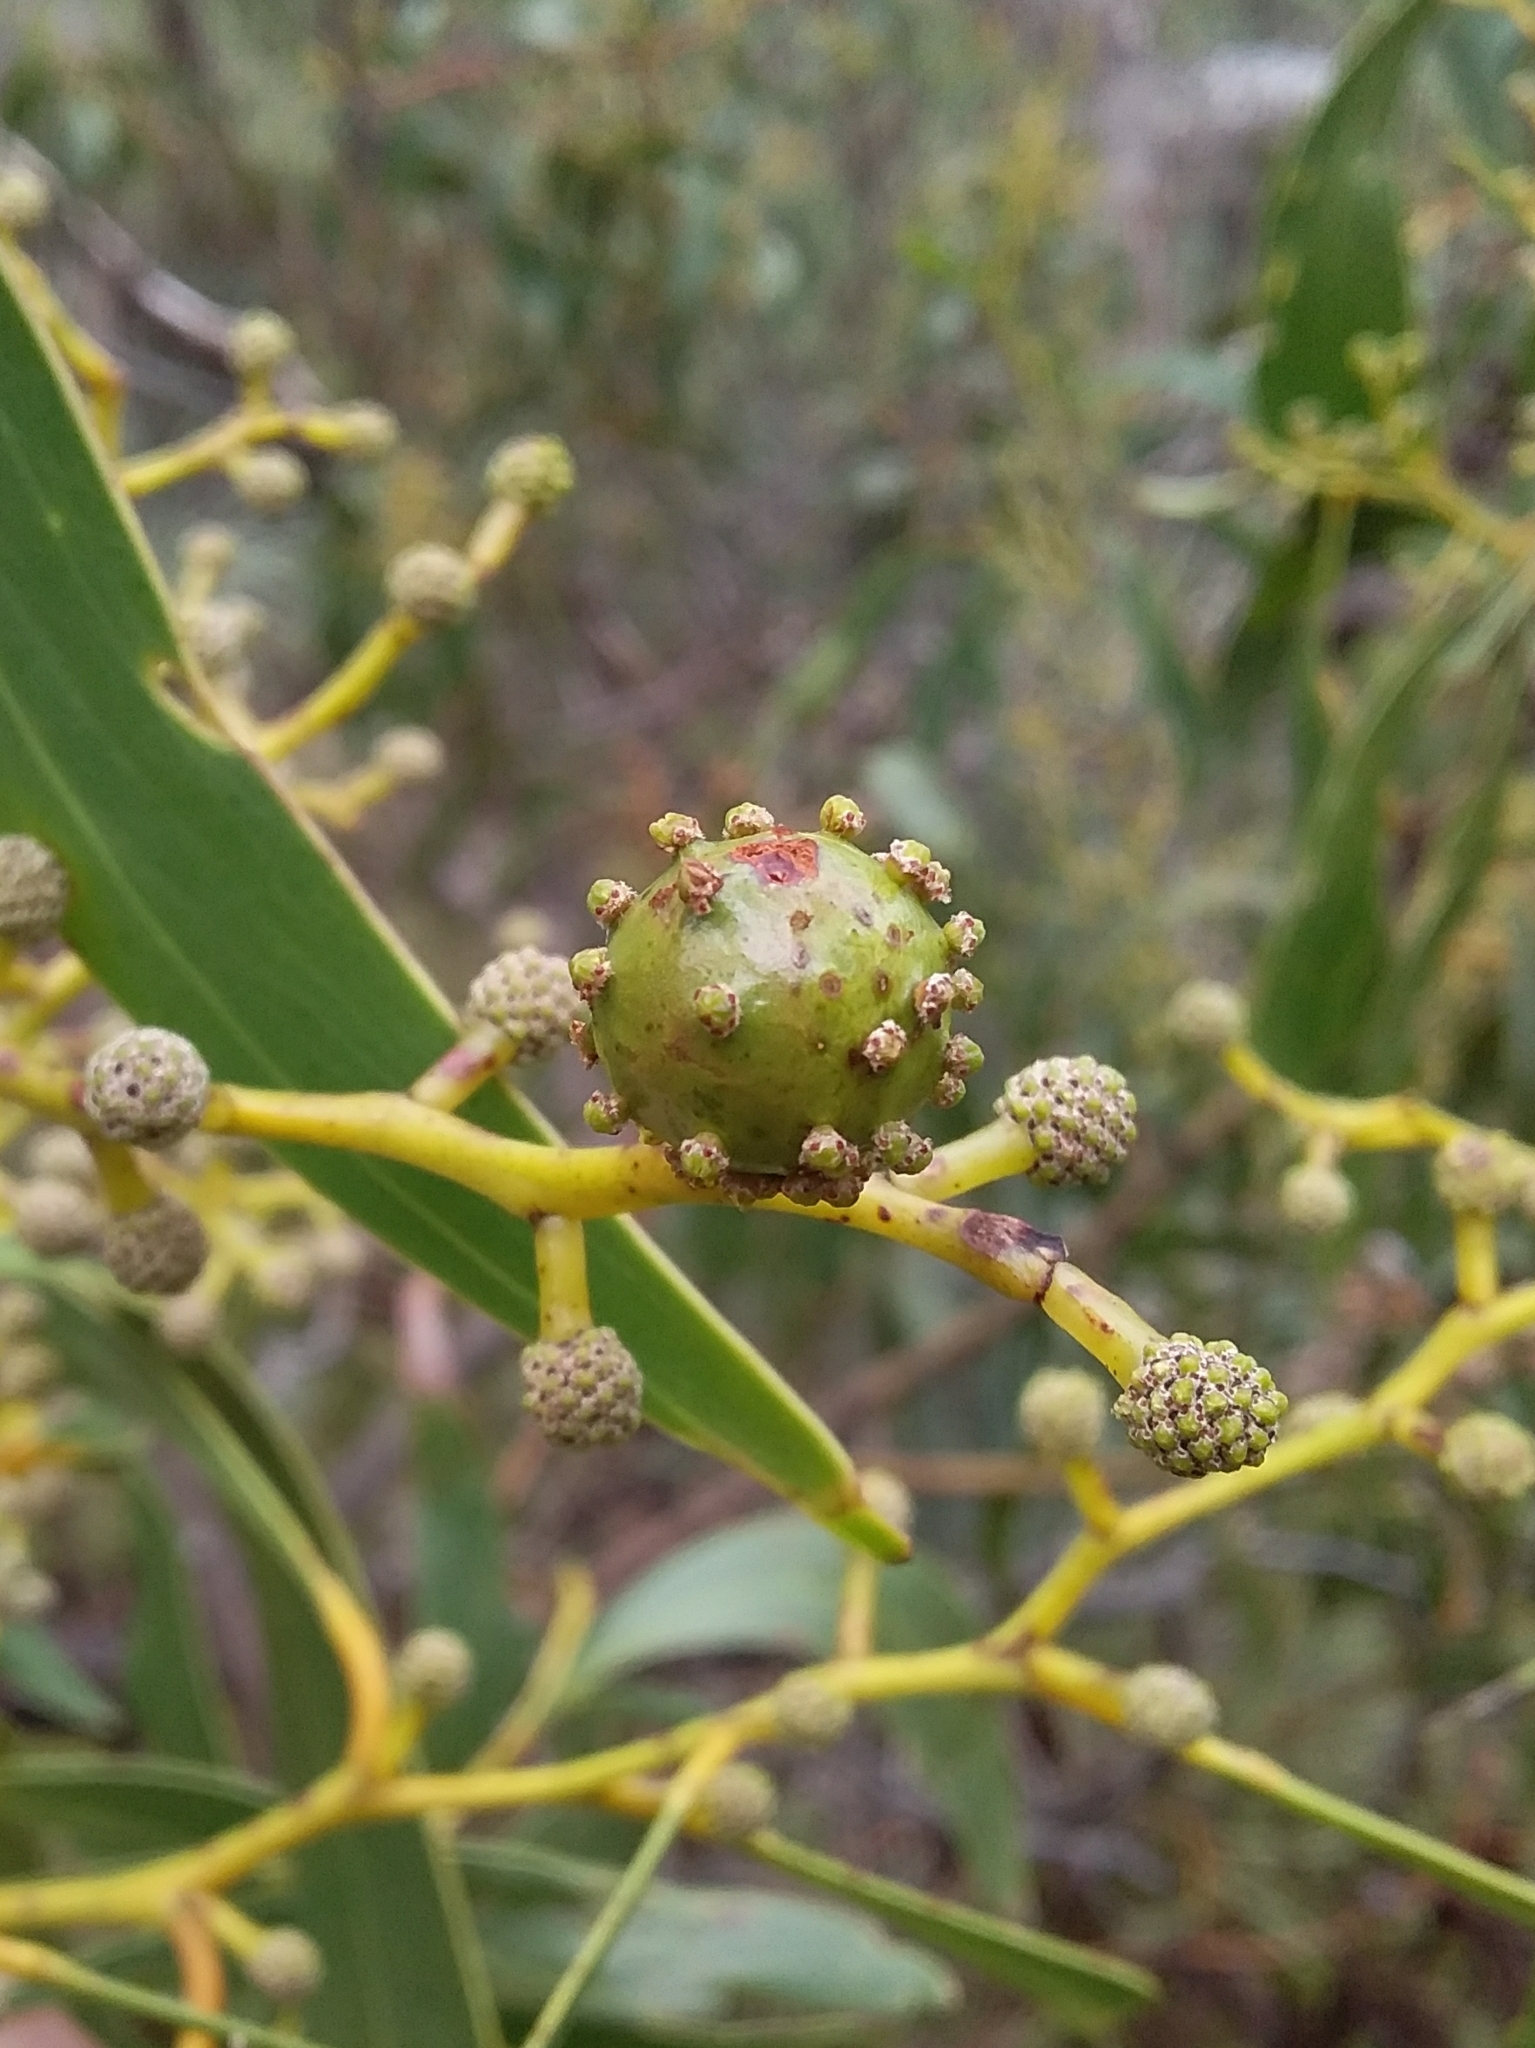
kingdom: Animalia
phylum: Arthropoda
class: Insecta
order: Hymenoptera
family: Pteromalidae
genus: Trichilogaster
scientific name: Trichilogaster signiventris
